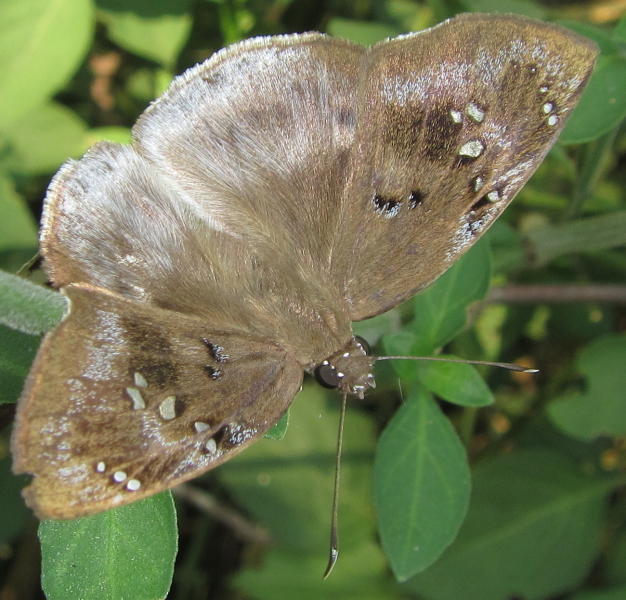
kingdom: Animalia
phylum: Arthropoda
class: Insecta
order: Lepidoptera
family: Hesperiidae
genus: Tagiades
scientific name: Tagiades flesus
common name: Clouded flat
